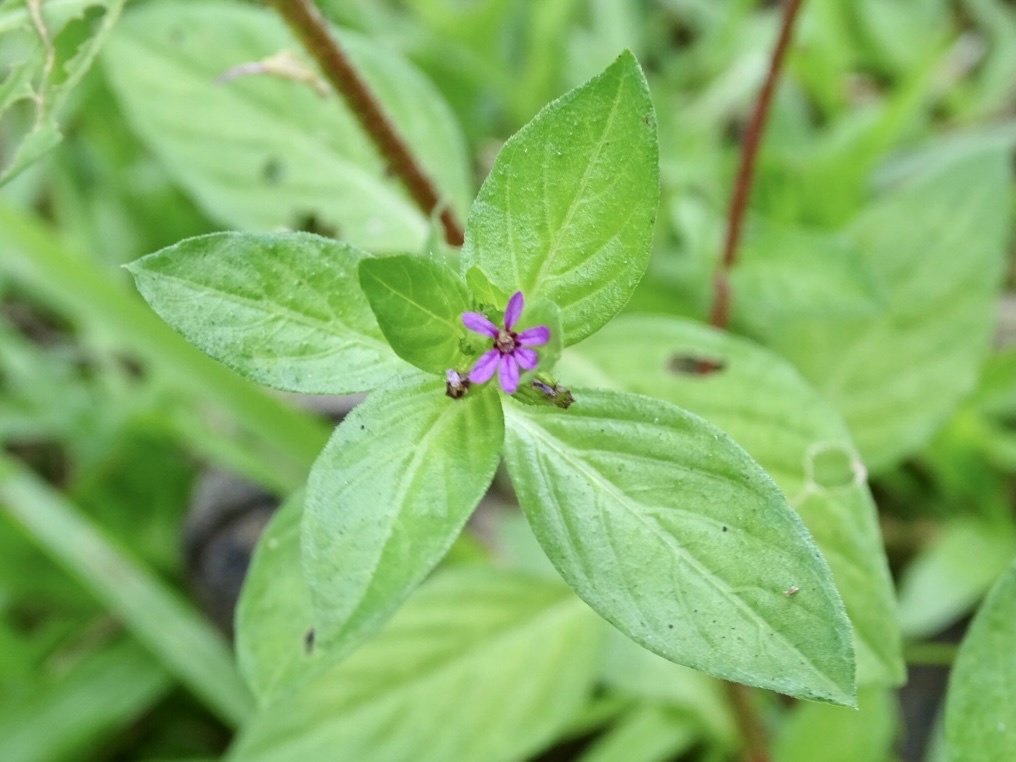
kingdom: Plantae
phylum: Tracheophyta
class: Magnoliopsida
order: Myrtales
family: Lythraceae
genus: Cuphea
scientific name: Cuphea carthagenensis
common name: Colombian waxweed
